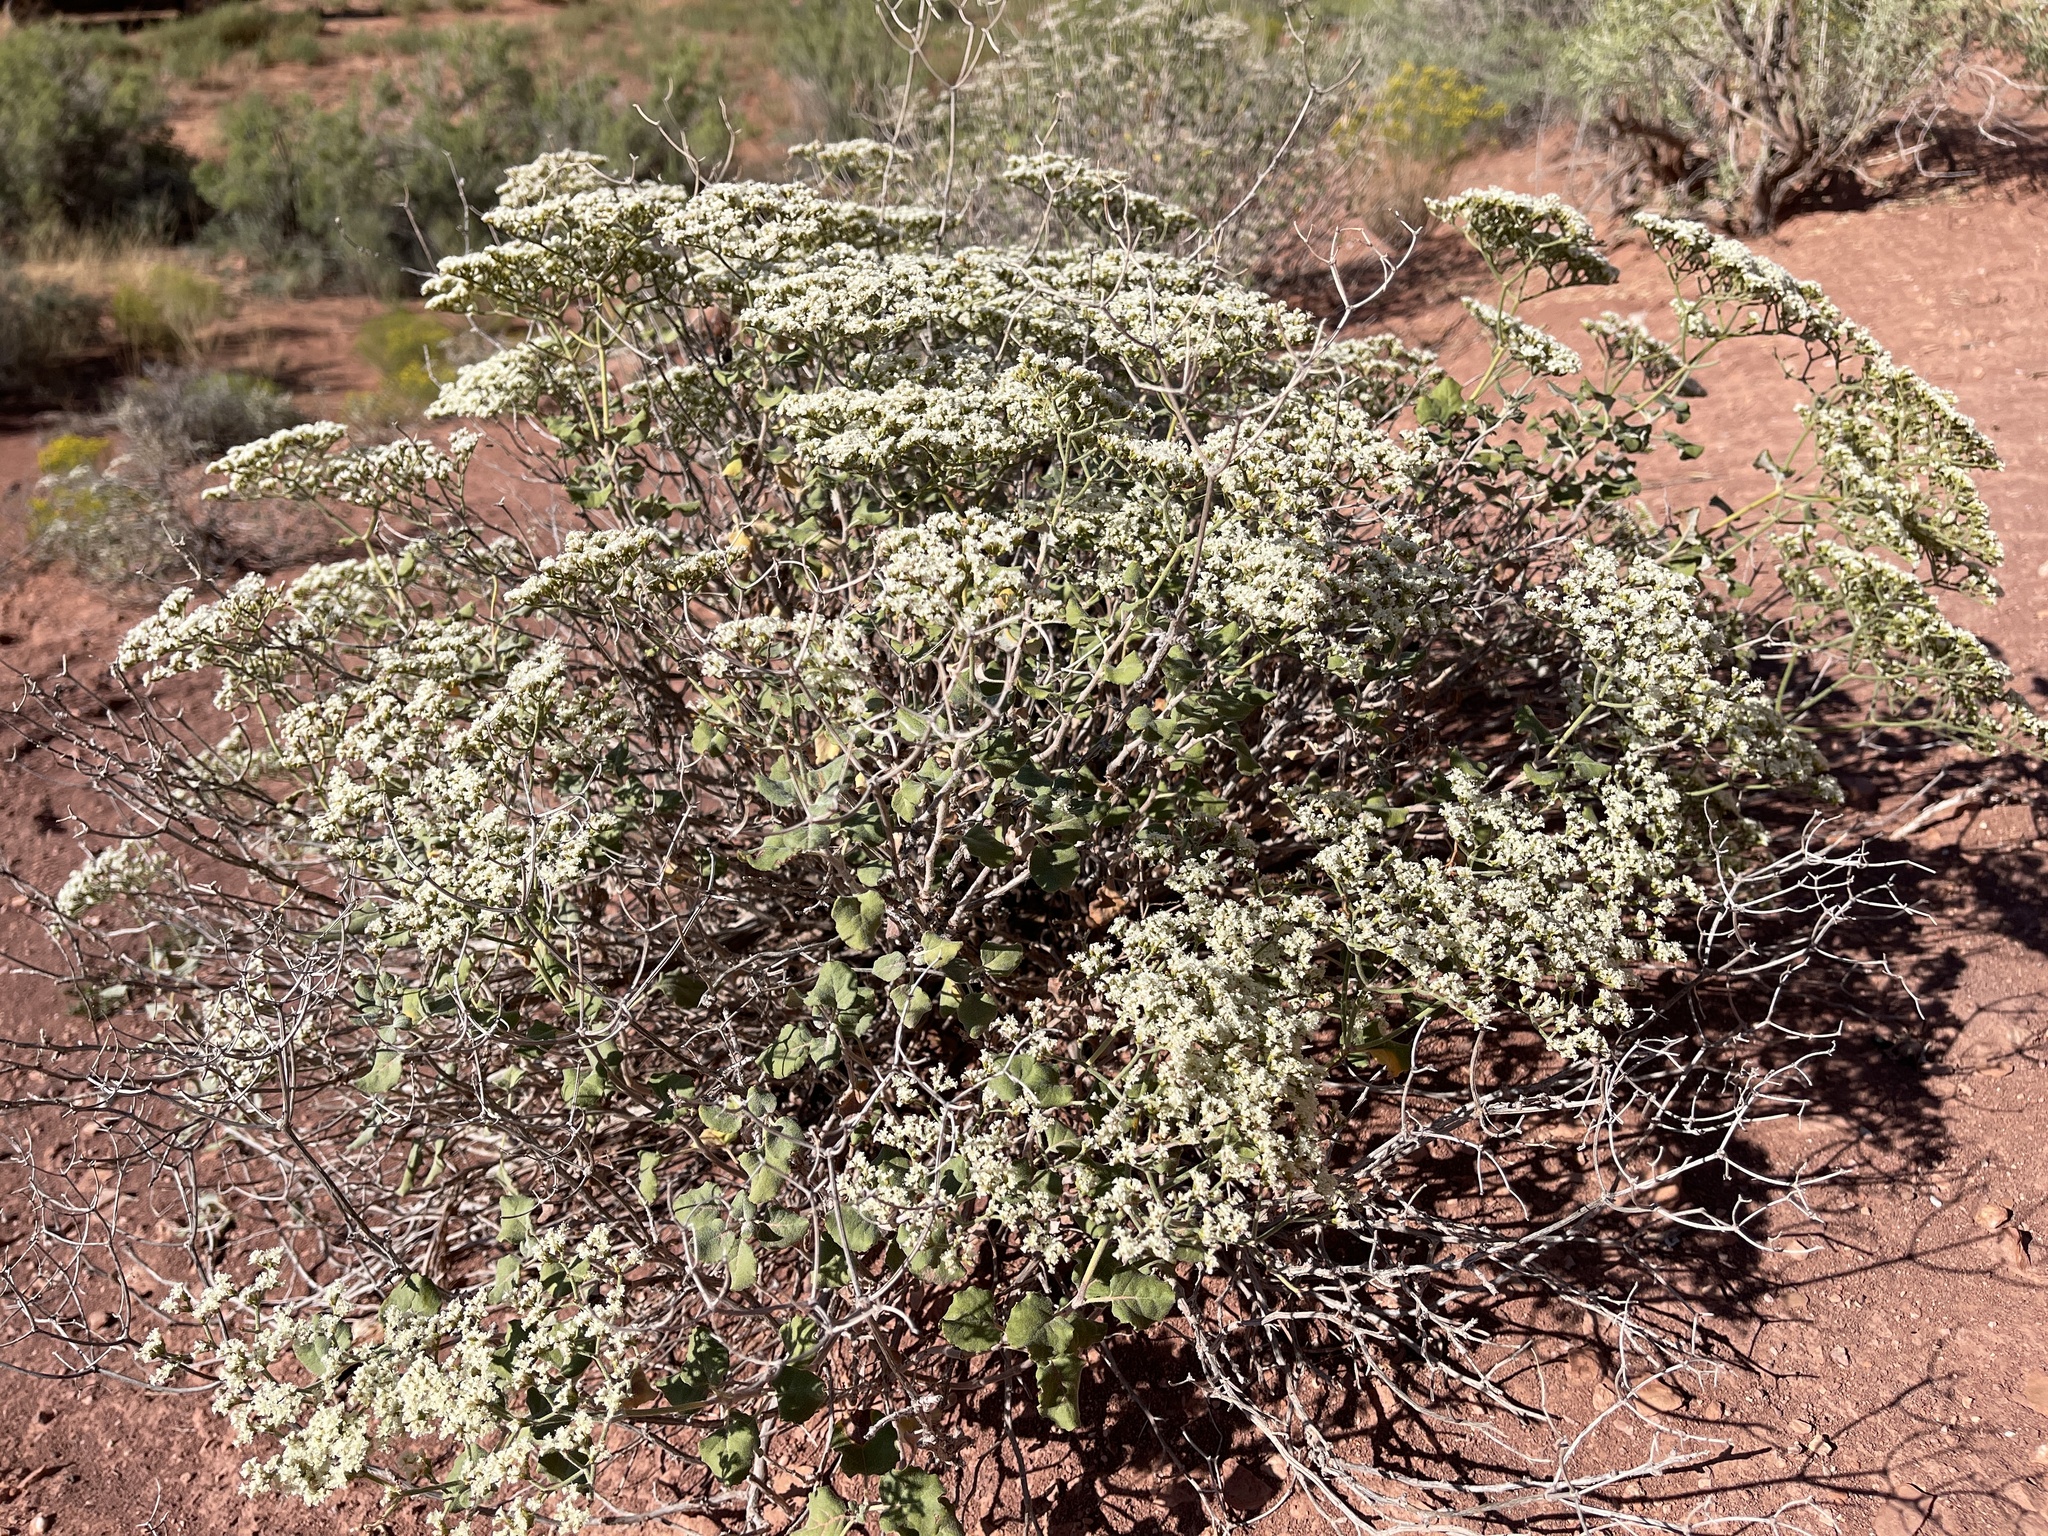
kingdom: Plantae
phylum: Tracheophyta
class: Magnoliopsida
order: Caryophyllales
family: Polygonaceae
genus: Eriogonum
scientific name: Eriogonum corymbosum
